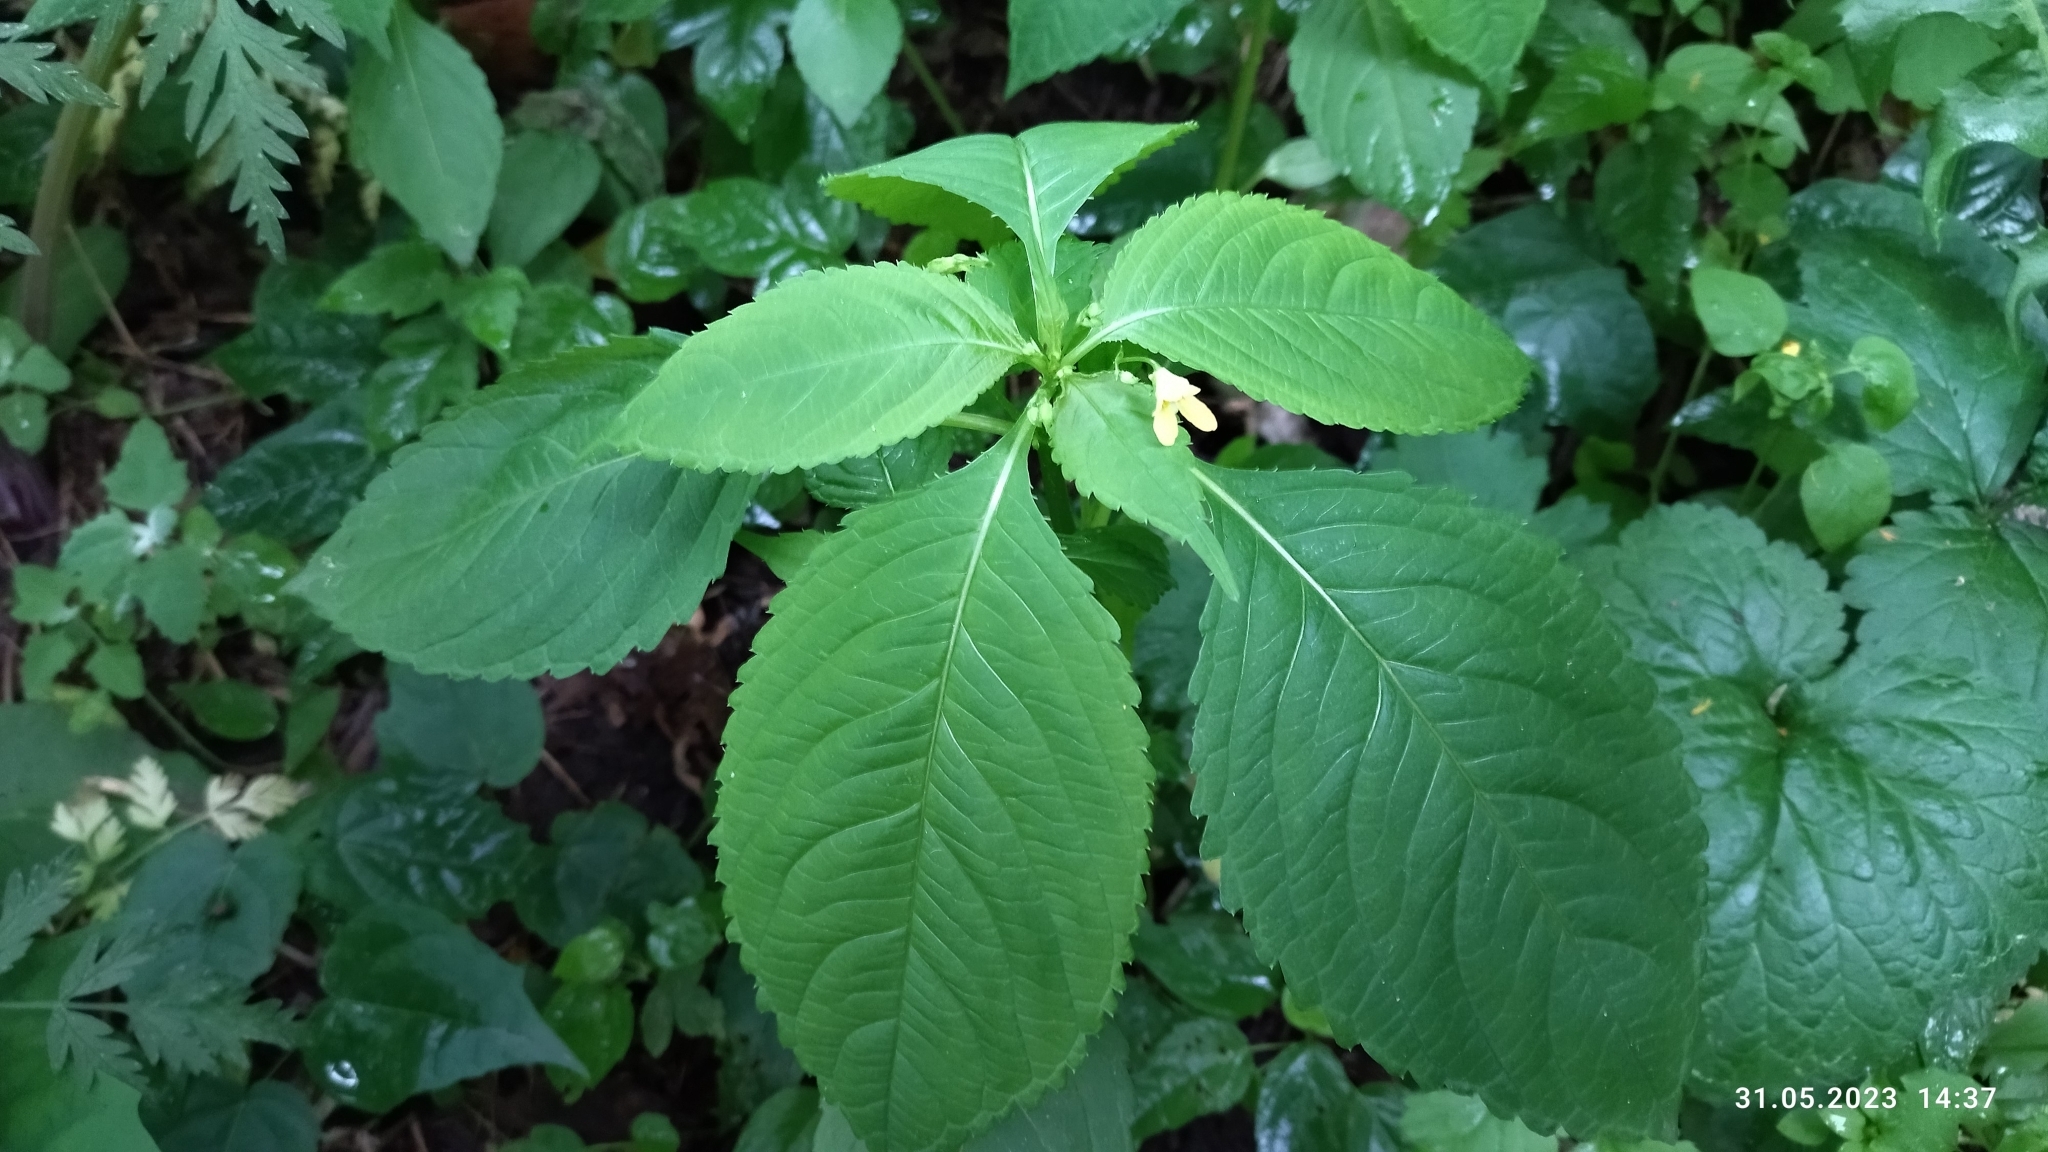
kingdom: Plantae
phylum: Tracheophyta
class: Magnoliopsida
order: Ericales
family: Balsaminaceae
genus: Impatiens
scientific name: Impatiens parviflora
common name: Small balsam
